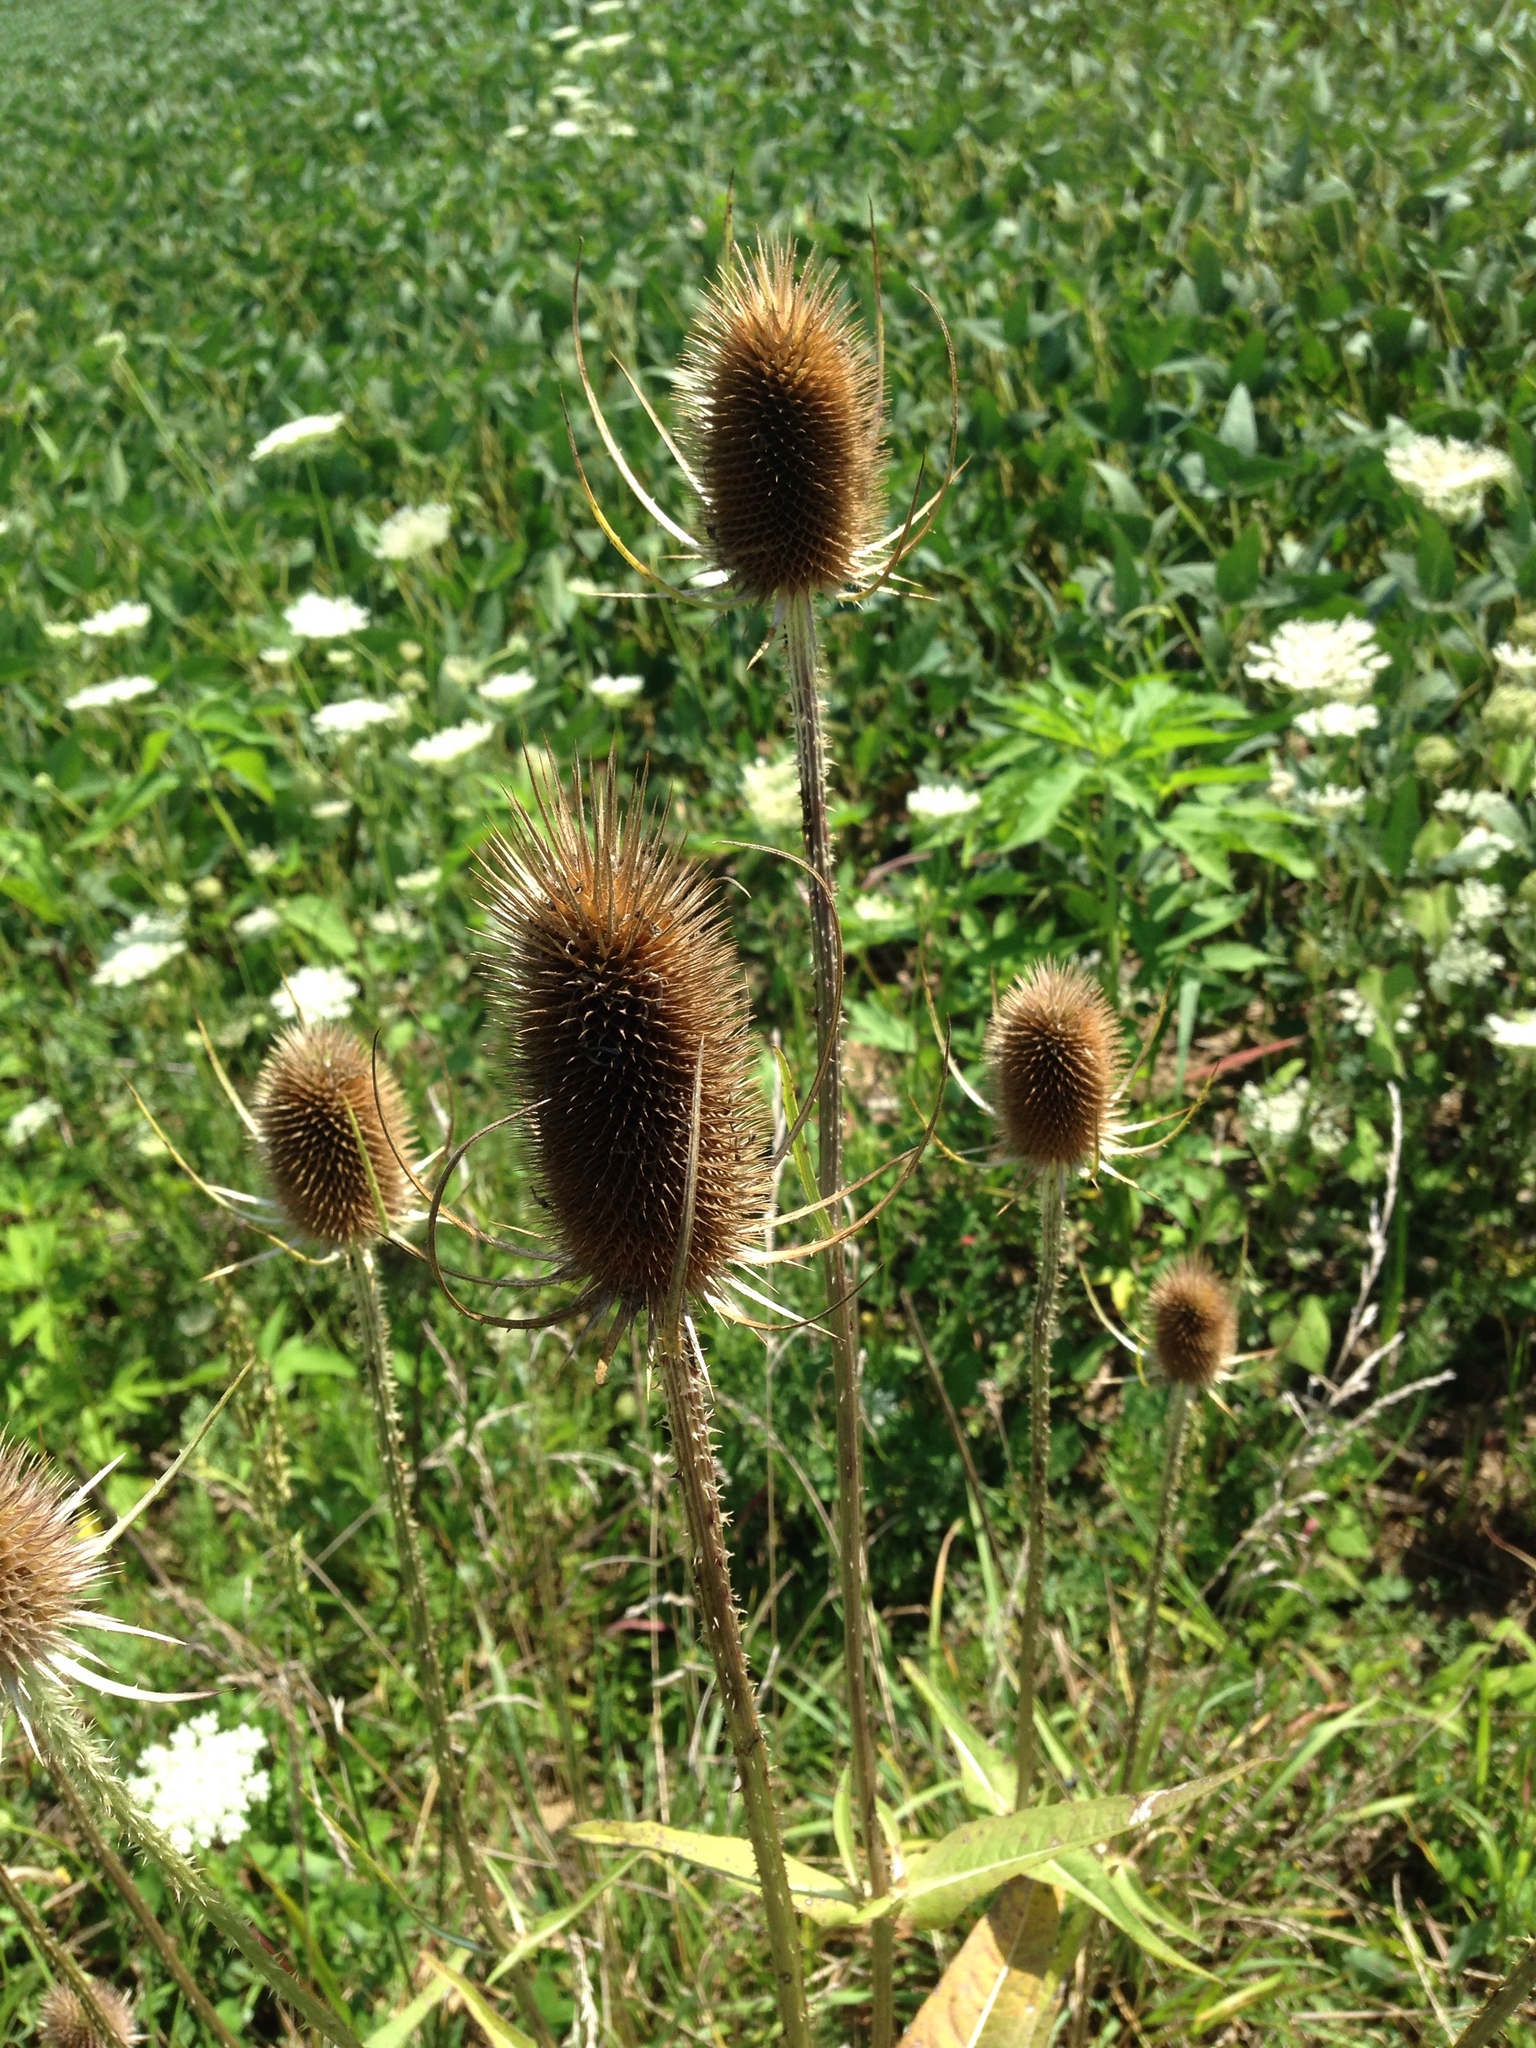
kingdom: Plantae
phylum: Tracheophyta
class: Magnoliopsida
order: Dipsacales
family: Caprifoliaceae
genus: Dipsacus
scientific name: Dipsacus fullonum
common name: Teasel
